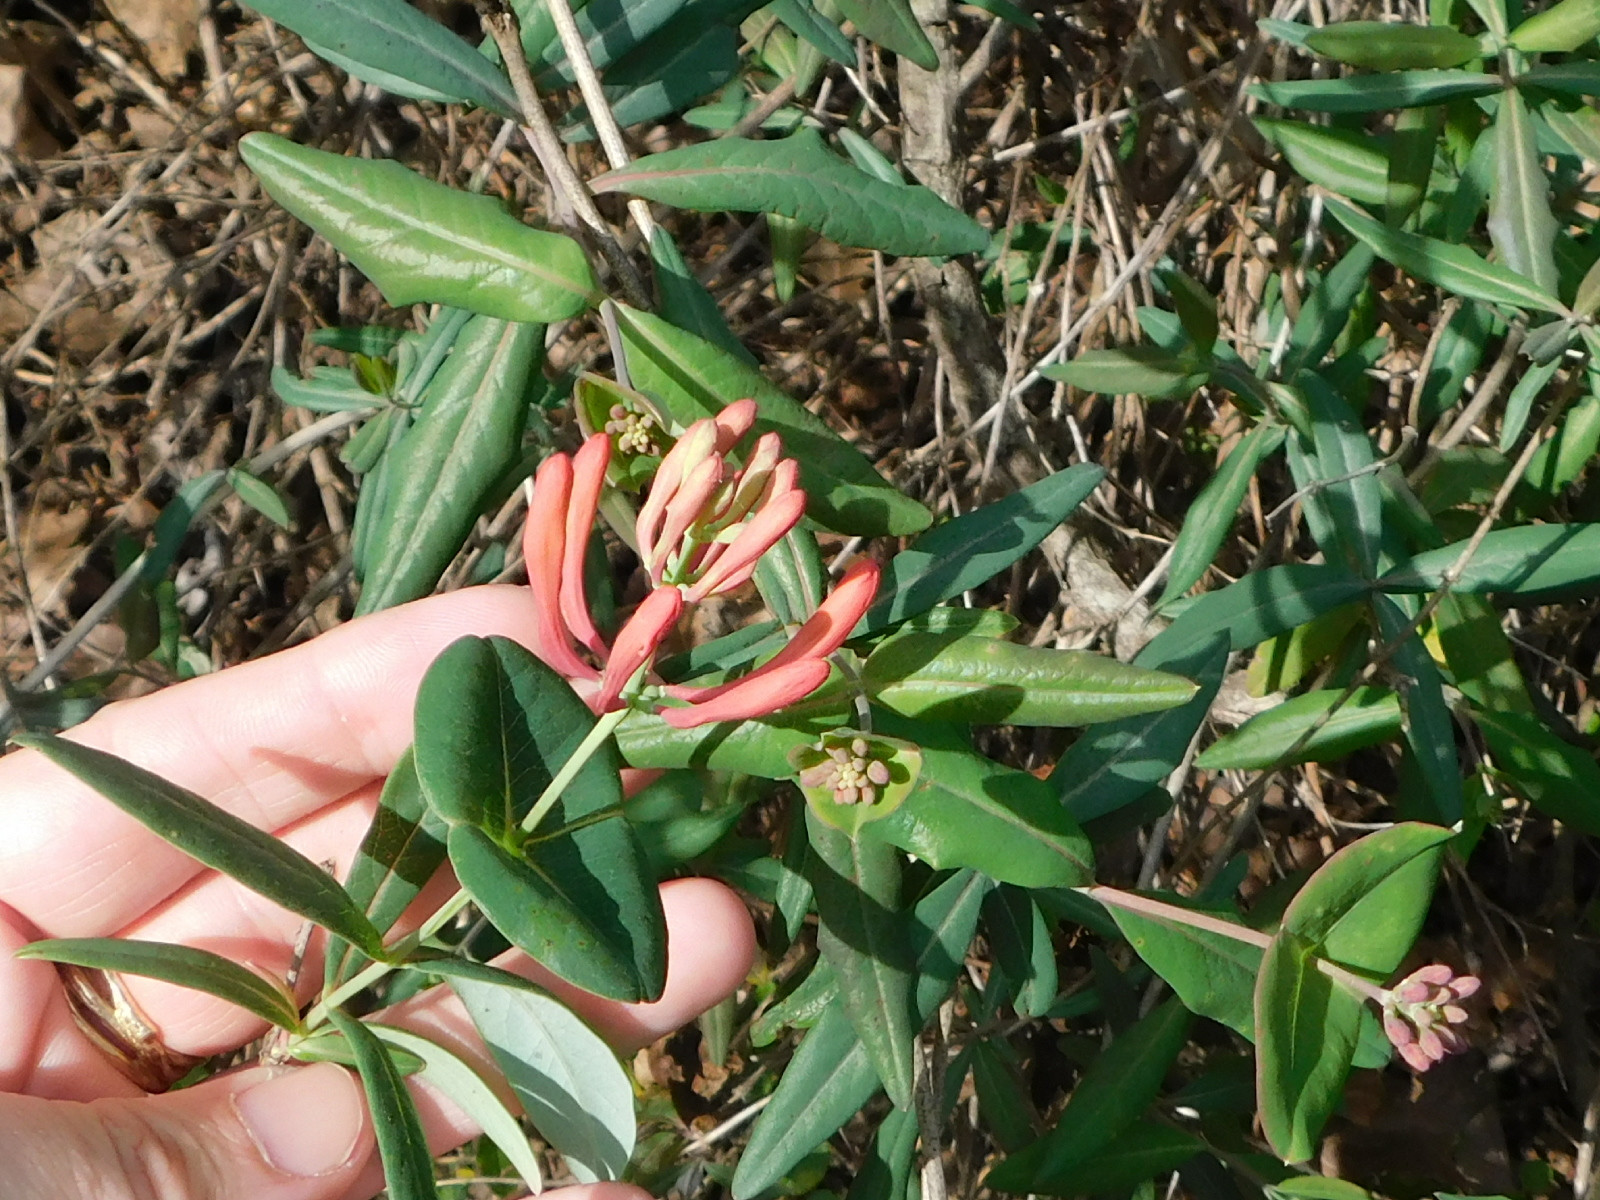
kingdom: Plantae
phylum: Tracheophyta
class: Magnoliopsida
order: Dipsacales
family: Caprifoliaceae
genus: Lonicera
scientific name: Lonicera sempervirens
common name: Coral honeysuckle
